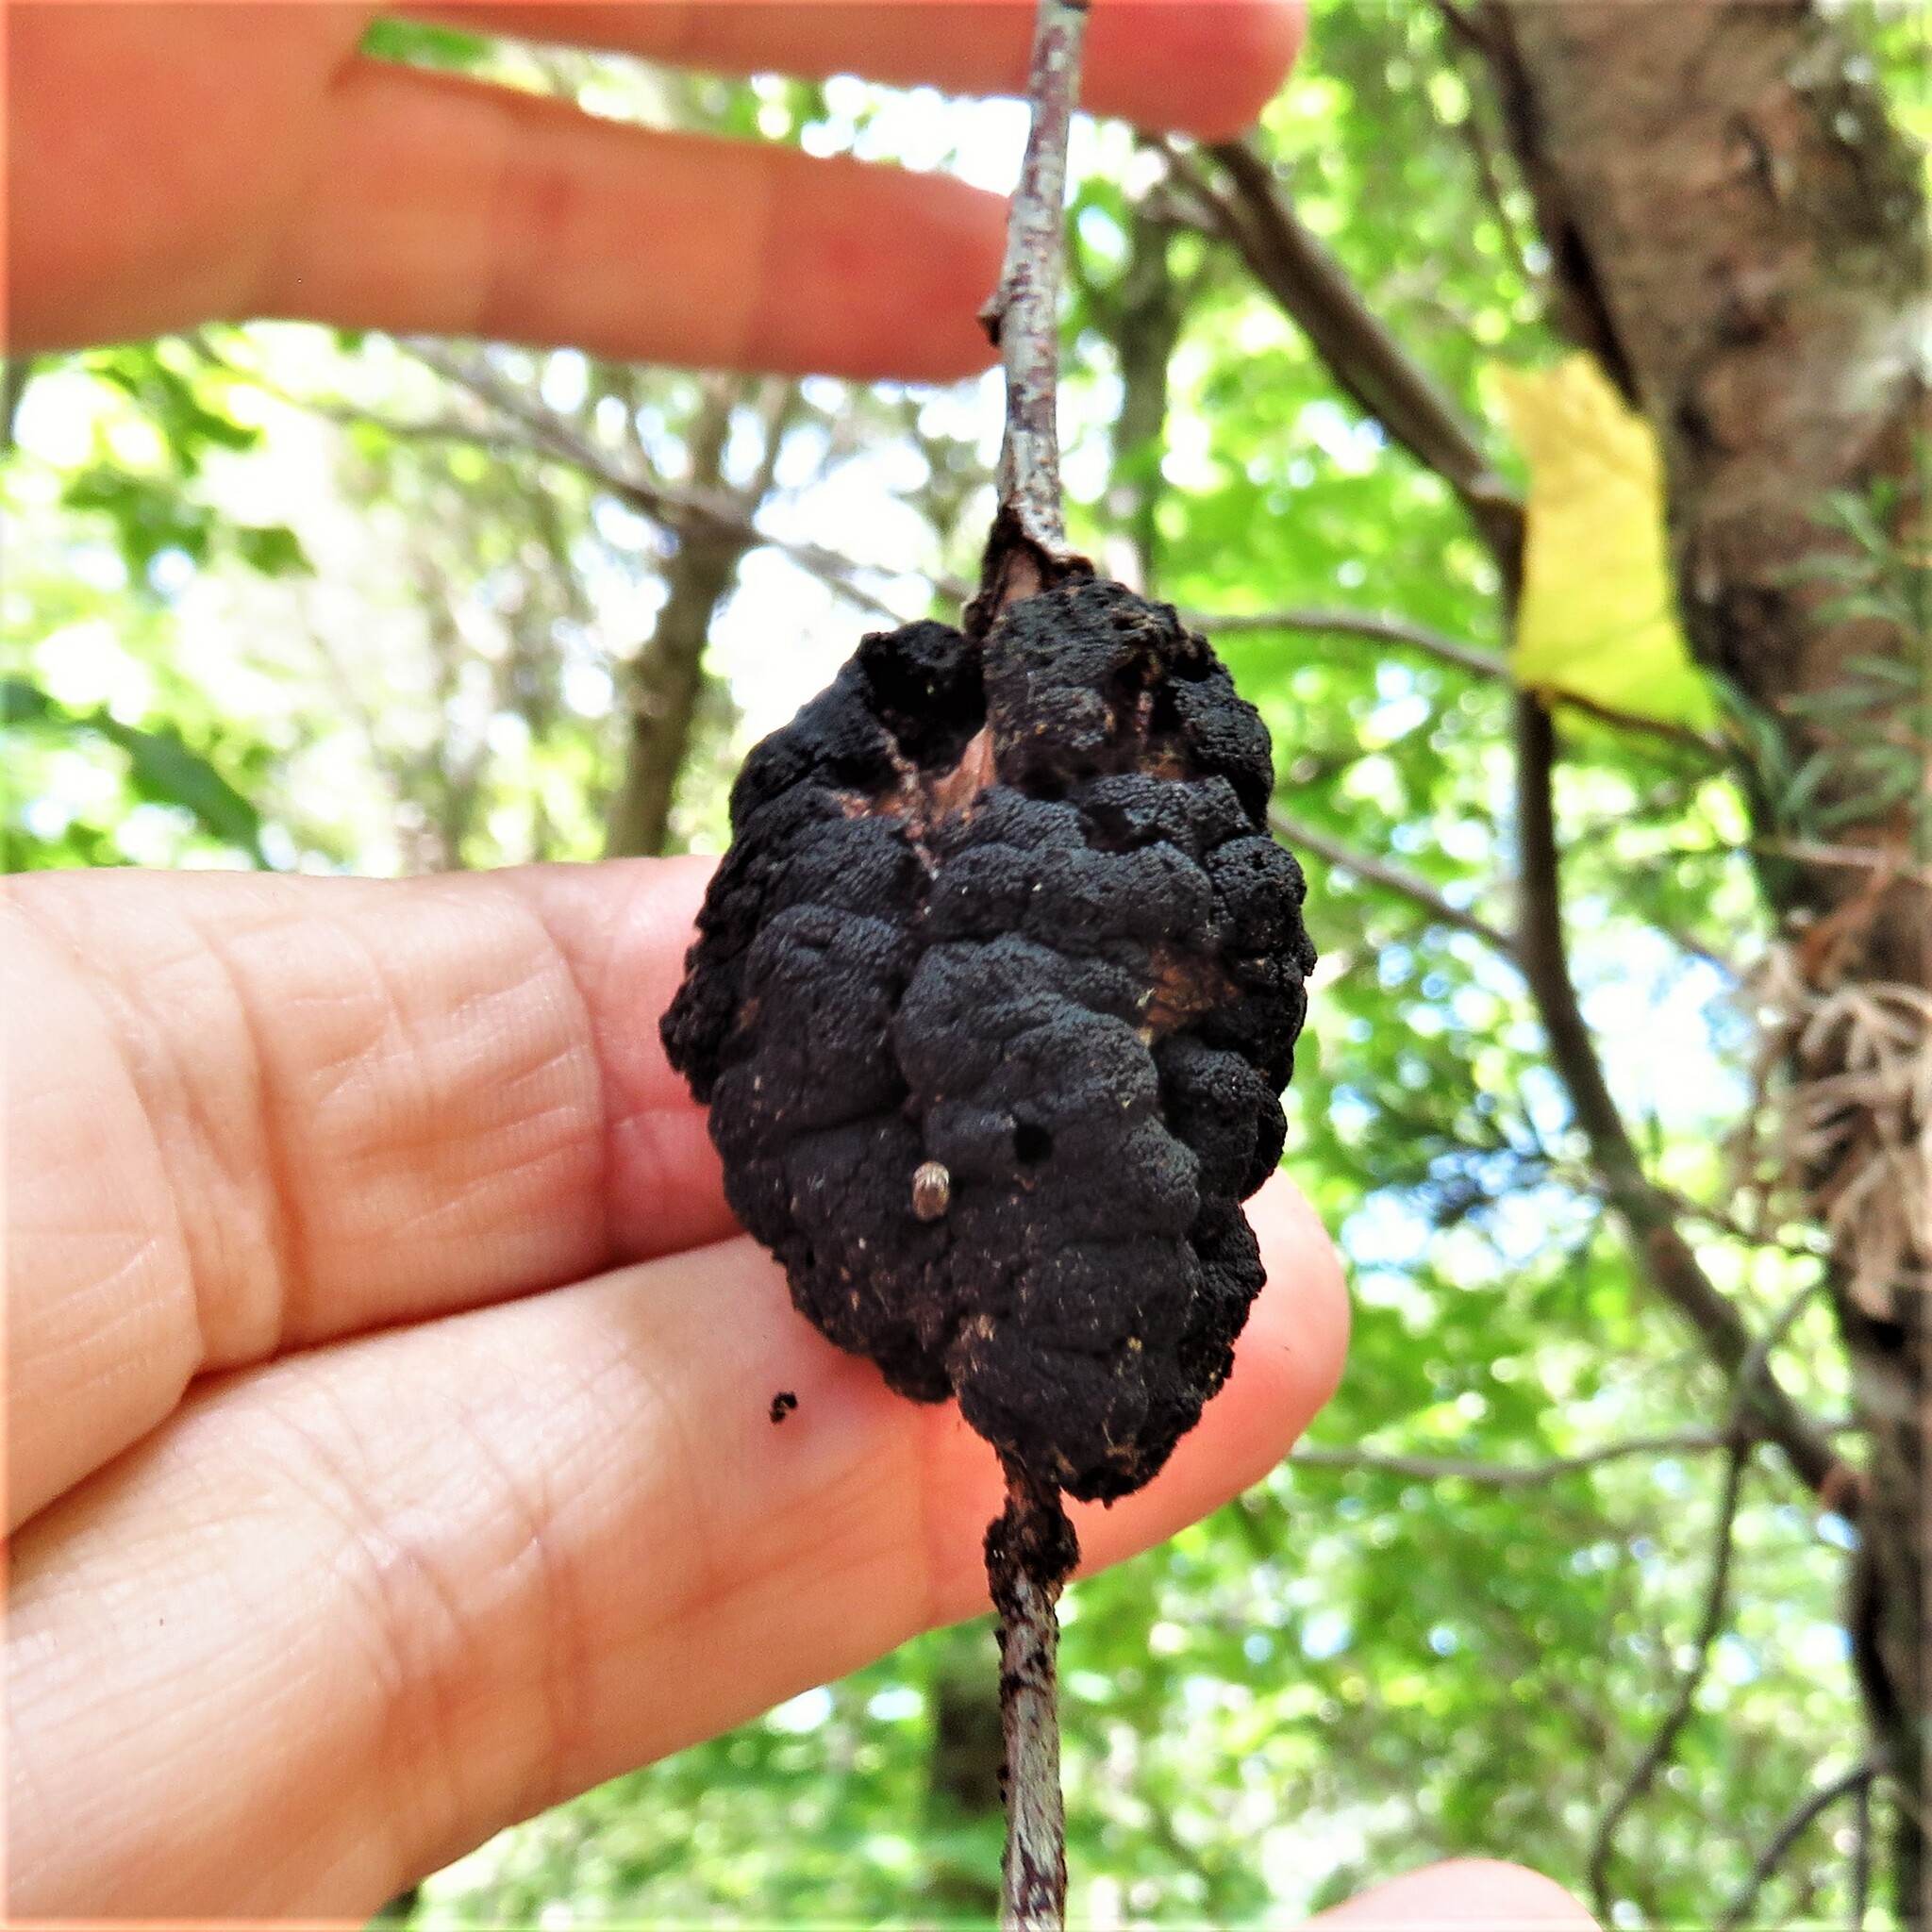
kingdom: Fungi
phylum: Ascomycota
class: Dothideomycetes
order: Venturiales
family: Venturiaceae
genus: Apiosporina
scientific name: Apiosporina morbosa
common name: Black knot
